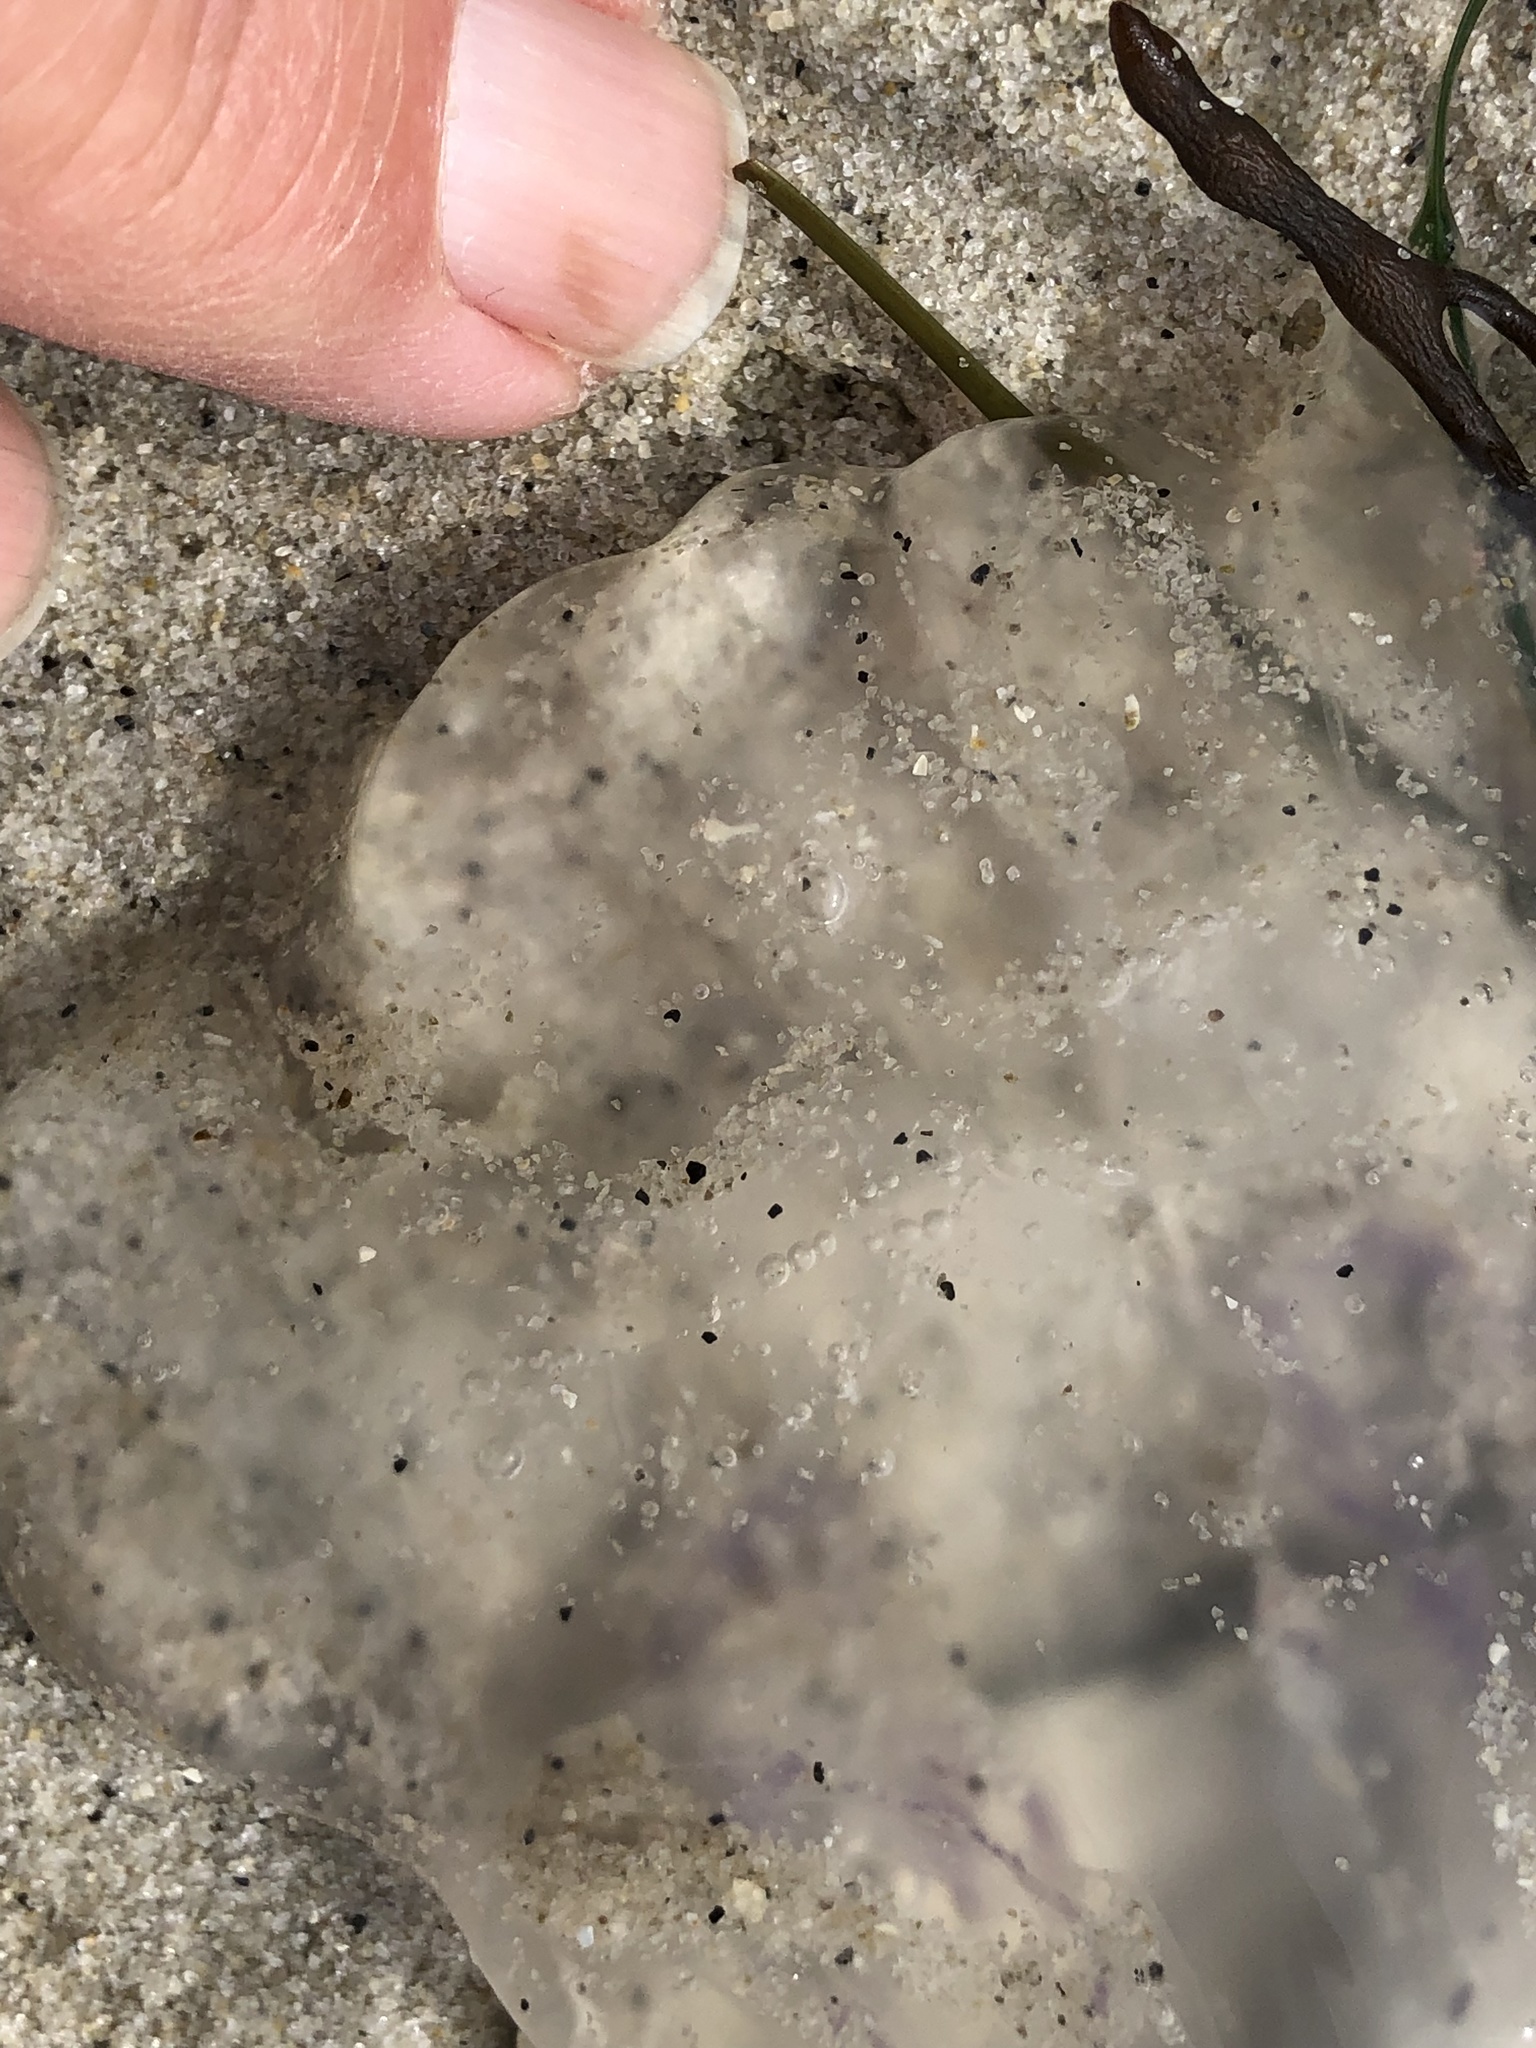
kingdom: Animalia
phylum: Cnidaria
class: Scyphozoa
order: Semaeostomeae
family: Ulmaridae
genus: Aurelia
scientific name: Aurelia labiata
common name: Pacific moon jelly
